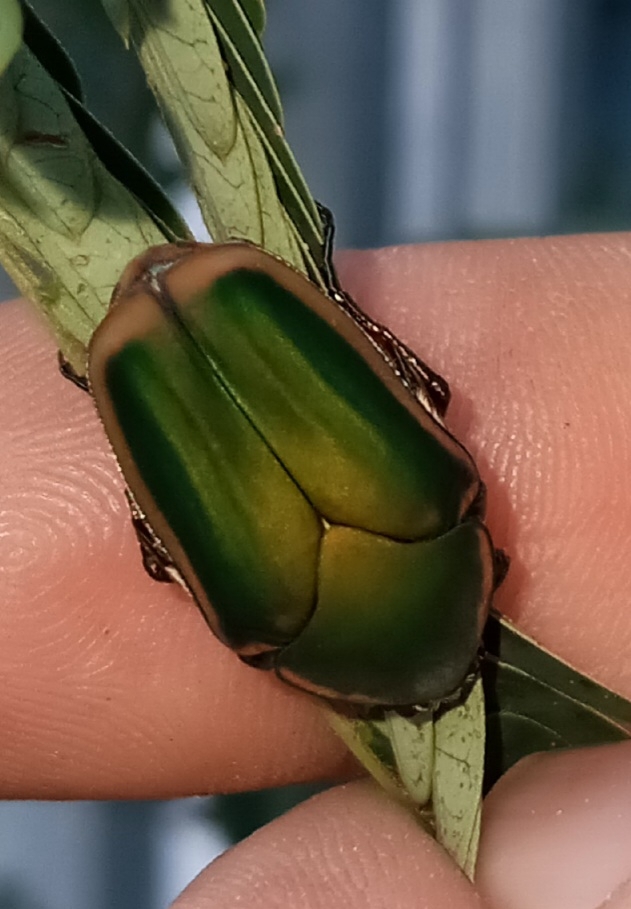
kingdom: Animalia
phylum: Arthropoda
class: Insecta
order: Coleoptera
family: Scarabaeidae
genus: Cotinis
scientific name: Cotinis nitida
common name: Common green june beetle
